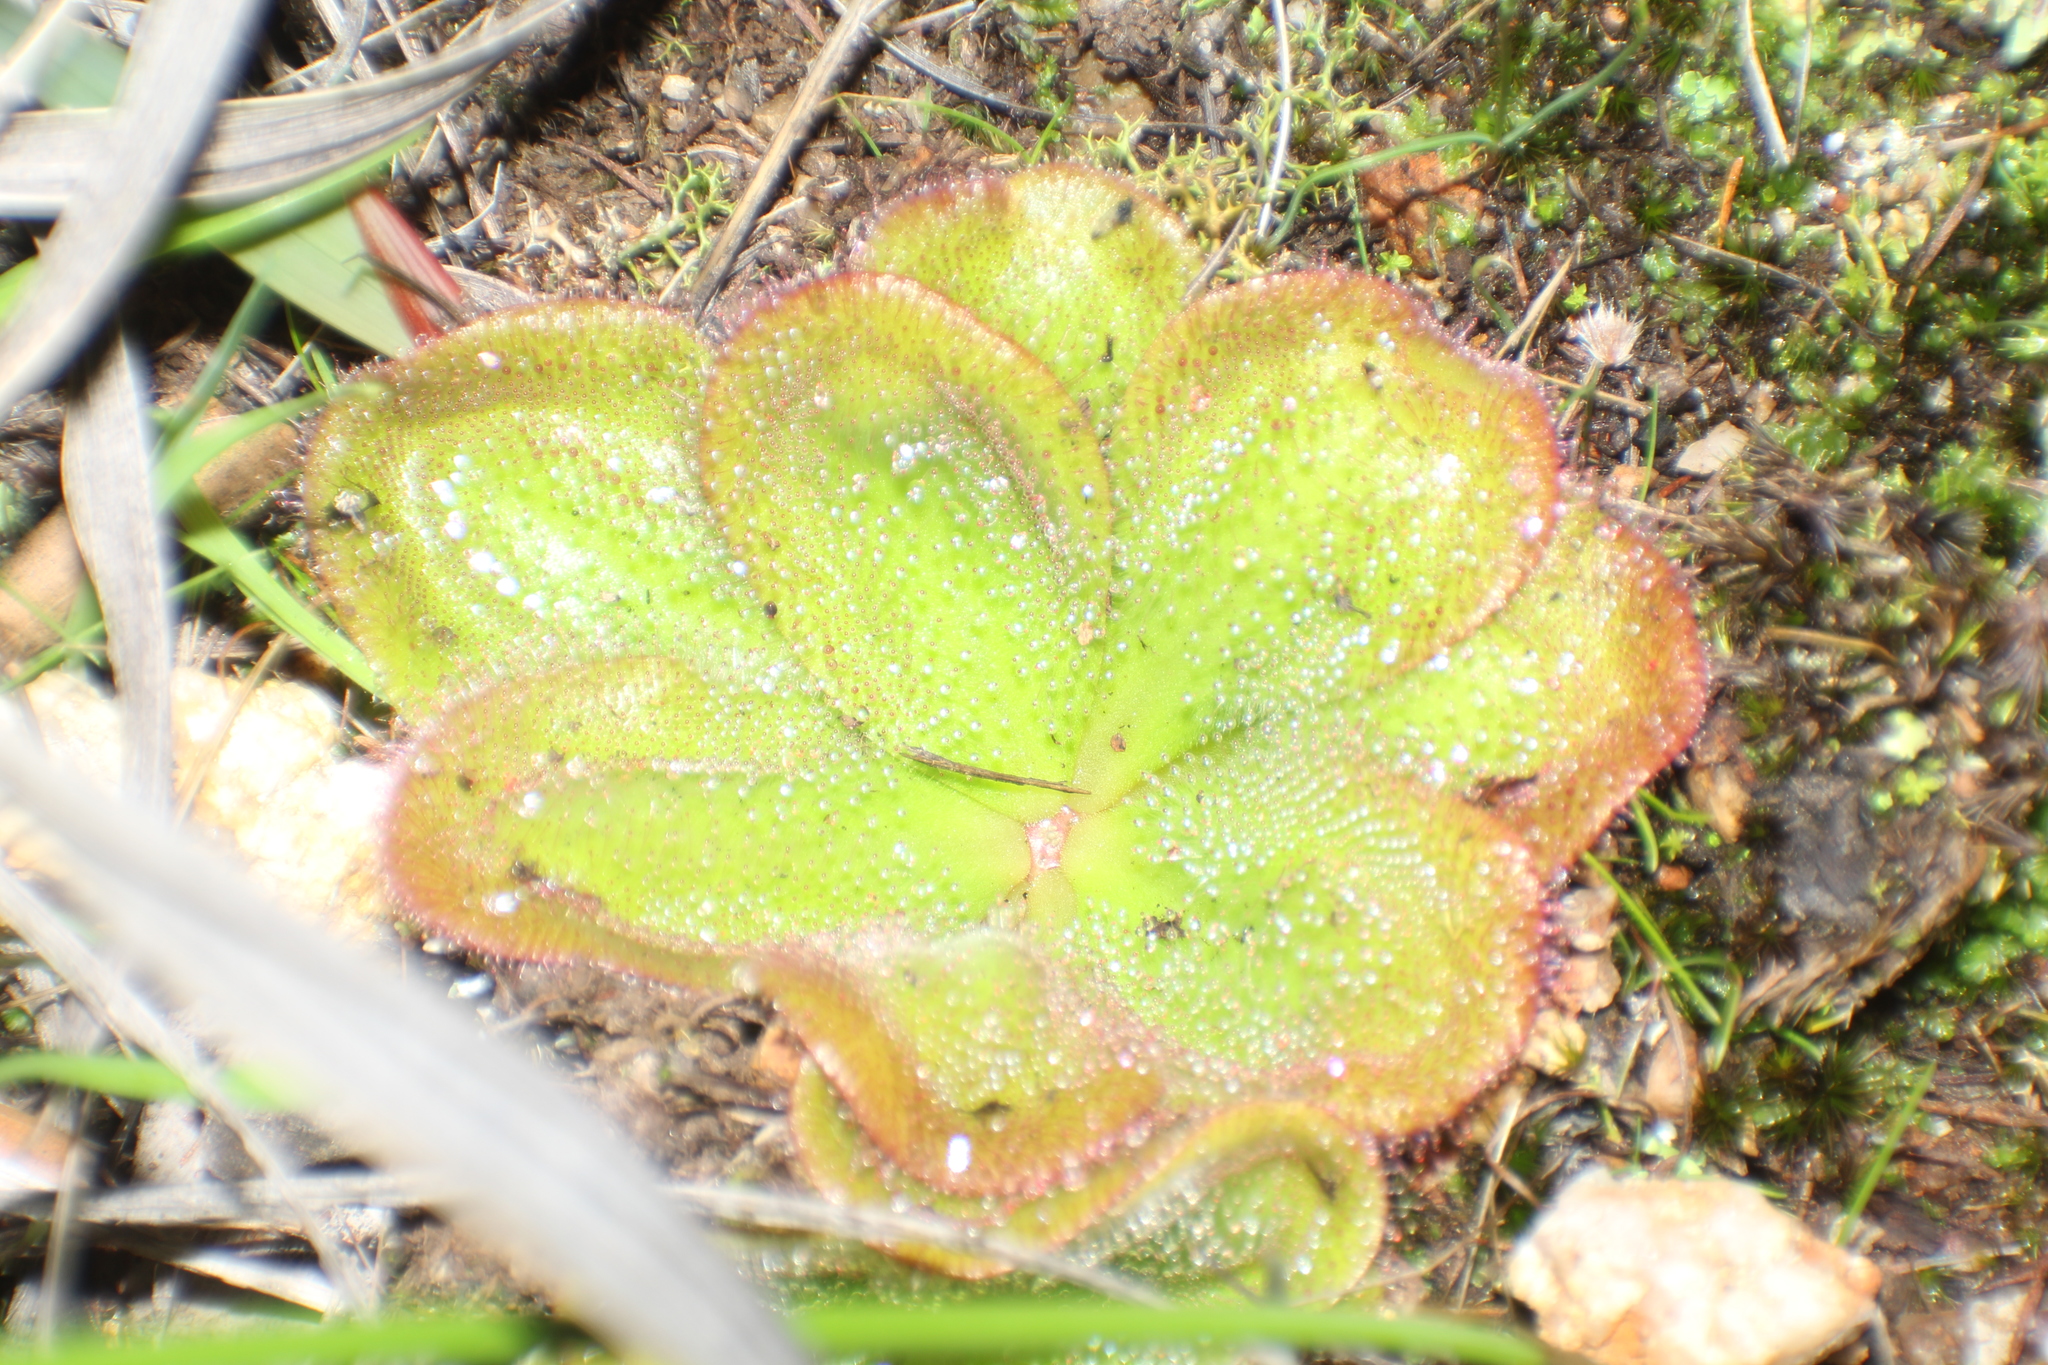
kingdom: Plantae
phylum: Tracheophyta
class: Magnoliopsida
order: Caryophyllales
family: Droseraceae
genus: Drosera
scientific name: Drosera erythrorhiza
